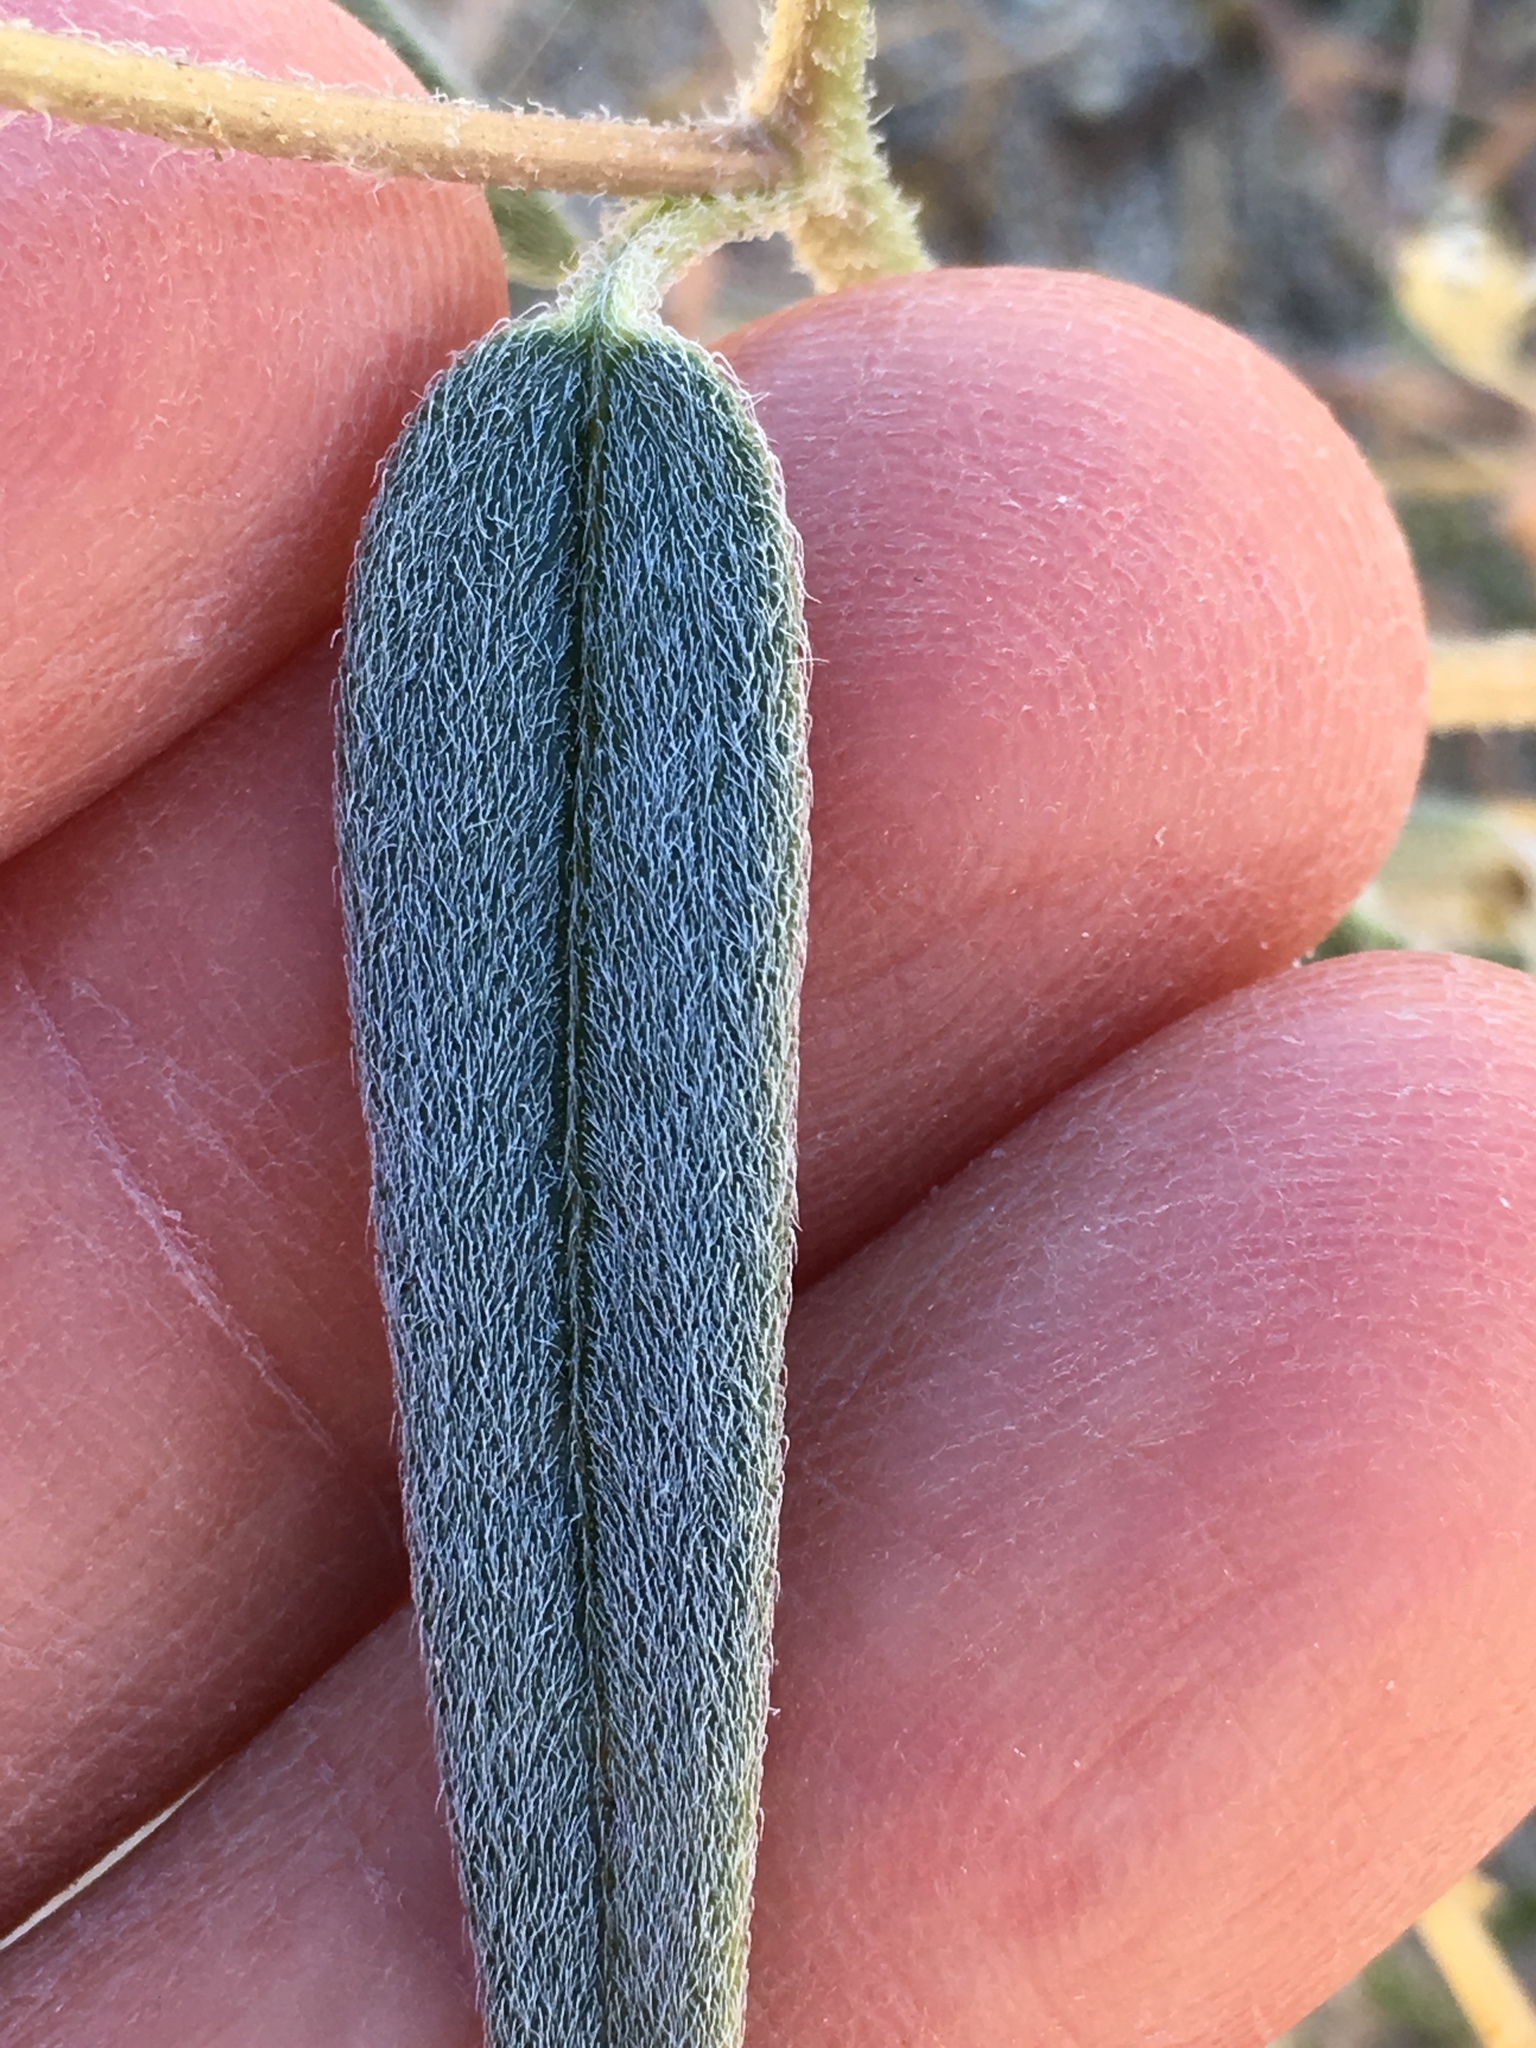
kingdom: Plantae
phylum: Tracheophyta
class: Magnoliopsida
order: Asterales
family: Asteraceae
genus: Palafoxia
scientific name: Palafoxia arida
